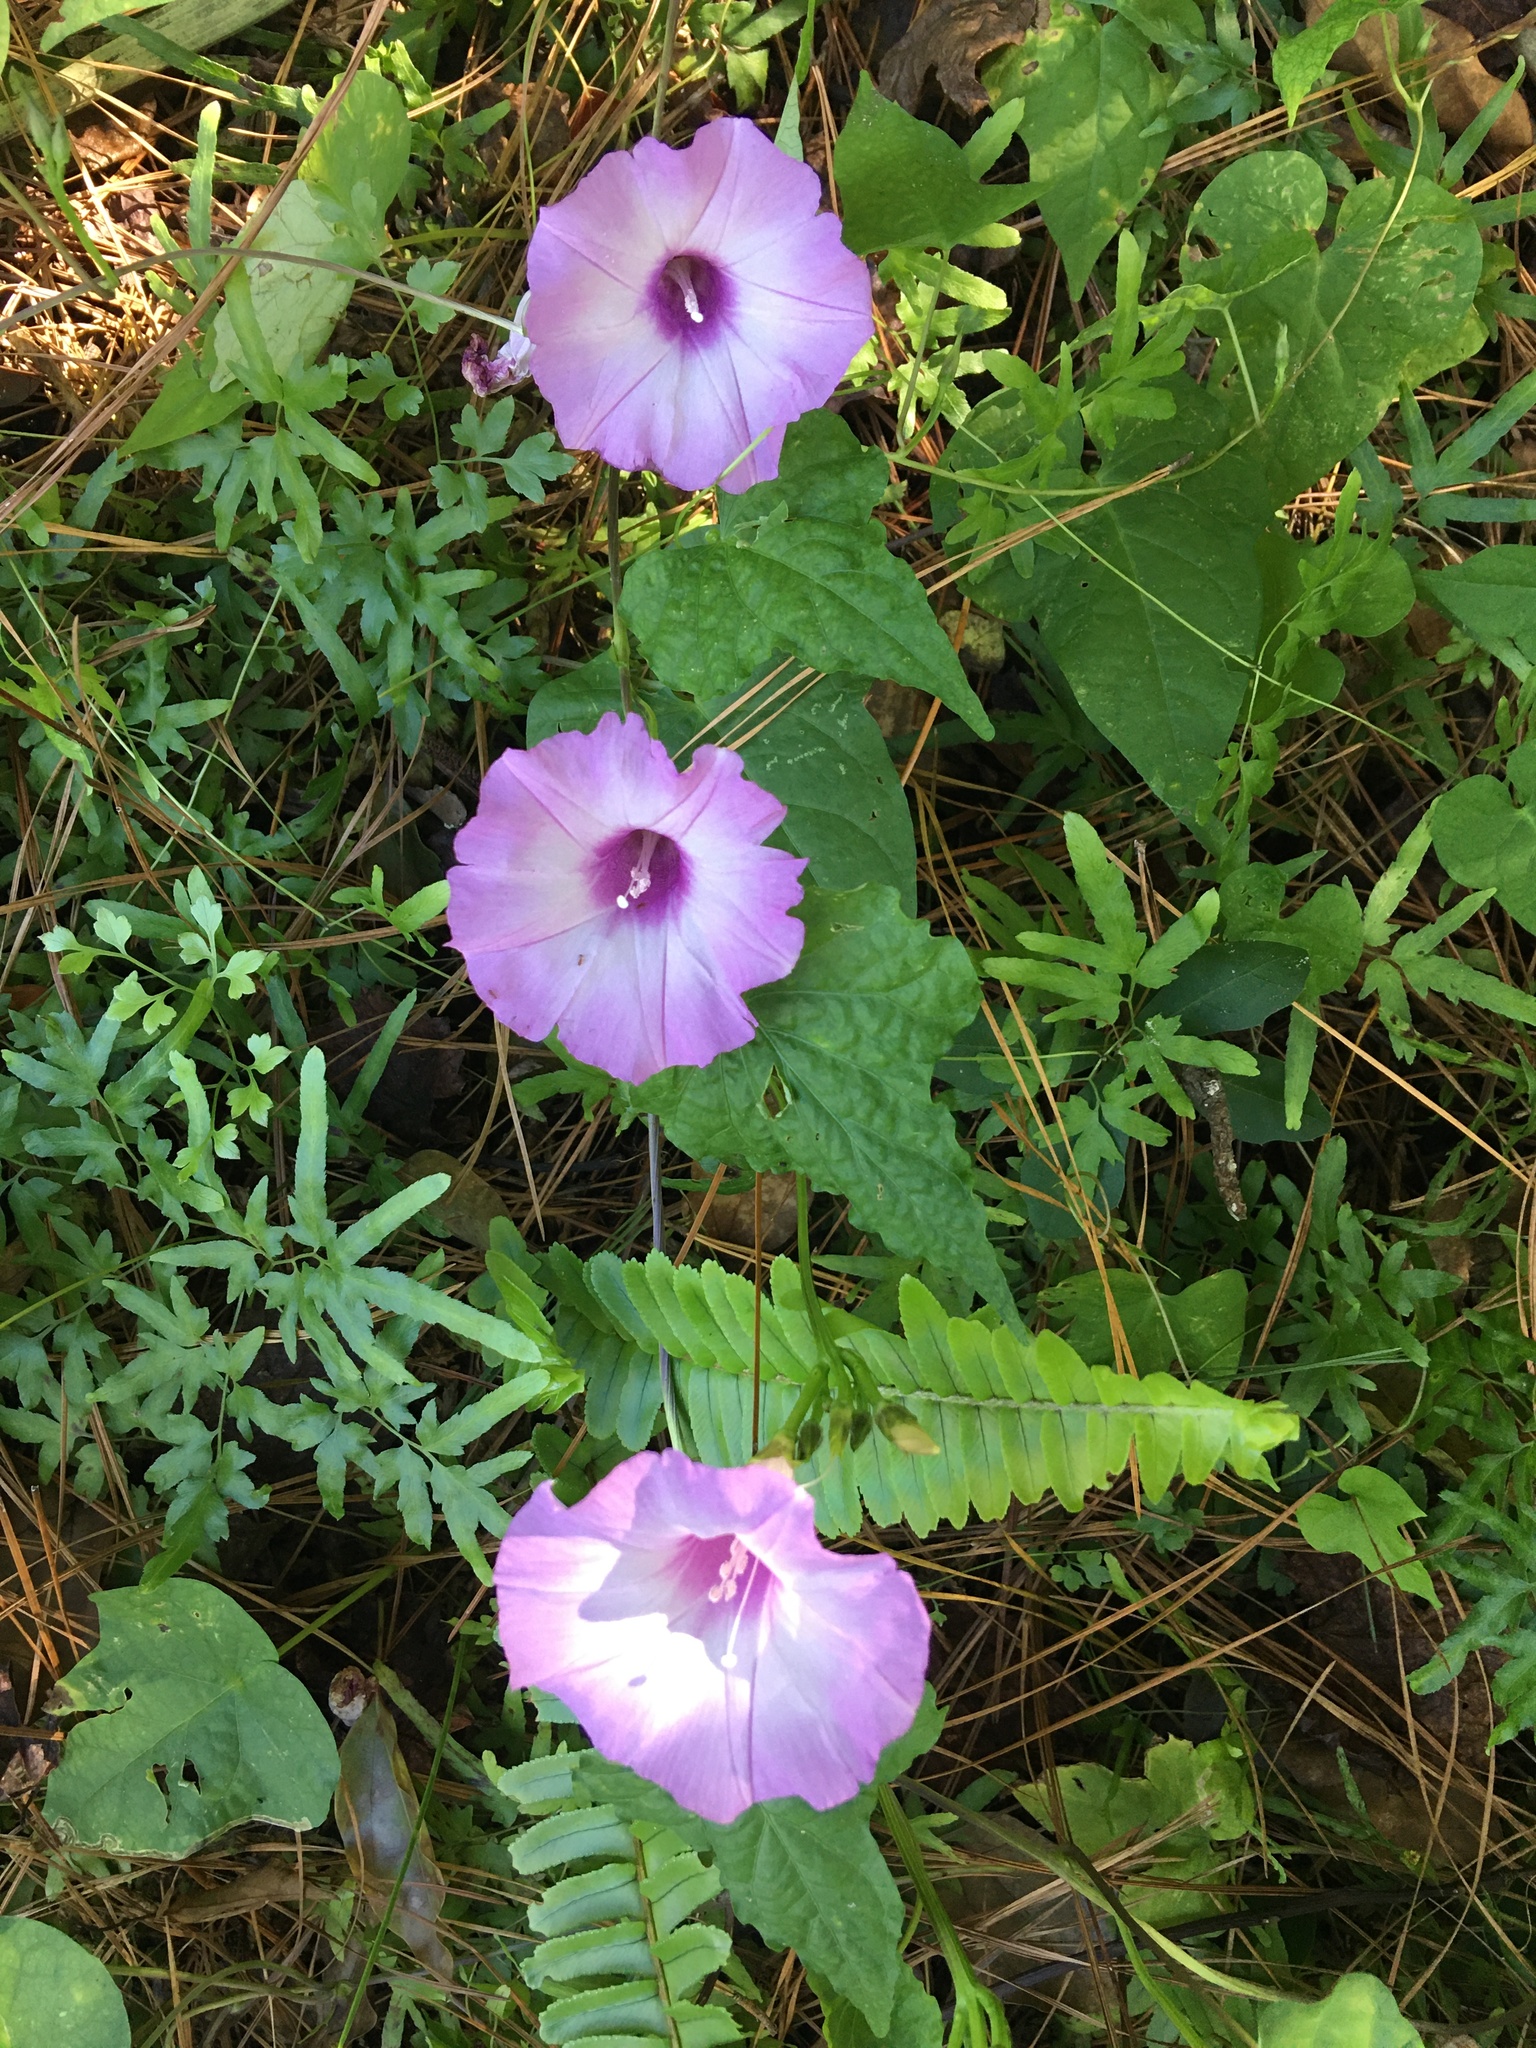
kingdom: Plantae
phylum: Tracheophyta
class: Magnoliopsida
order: Solanales
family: Convolvulaceae
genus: Ipomoea
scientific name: Ipomoea cordatotriloba
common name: Cotton morning glory
